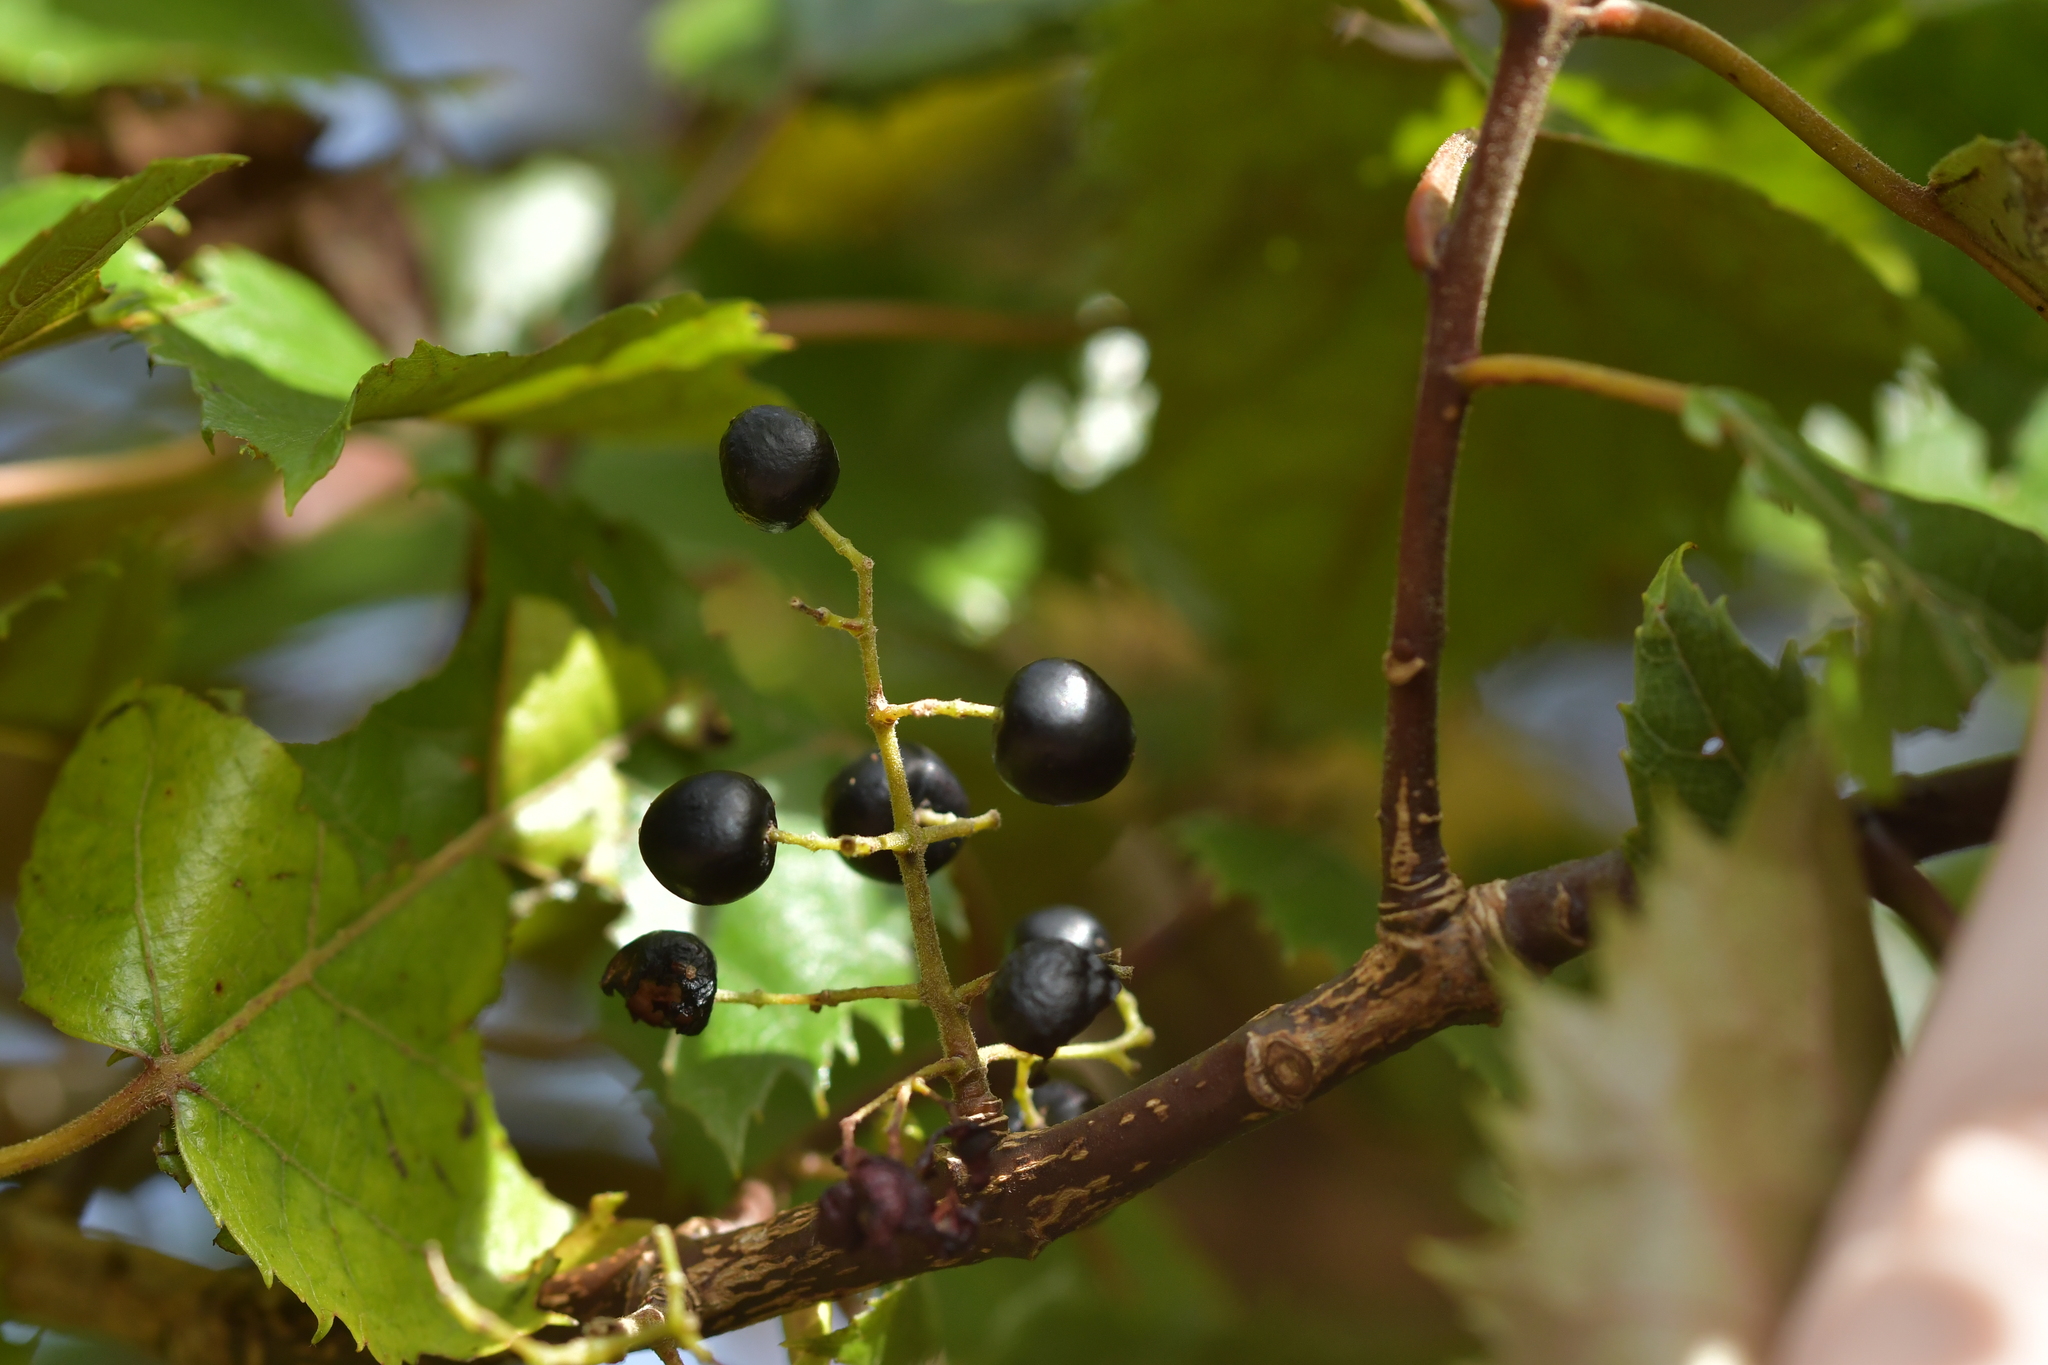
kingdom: Plantae
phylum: Tracheophyta
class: Magnoliopsida
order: Oxalidales
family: Elaeocarpaceae
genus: Aristotelia
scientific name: Aristotelia serrata
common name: New zealand wineberry
